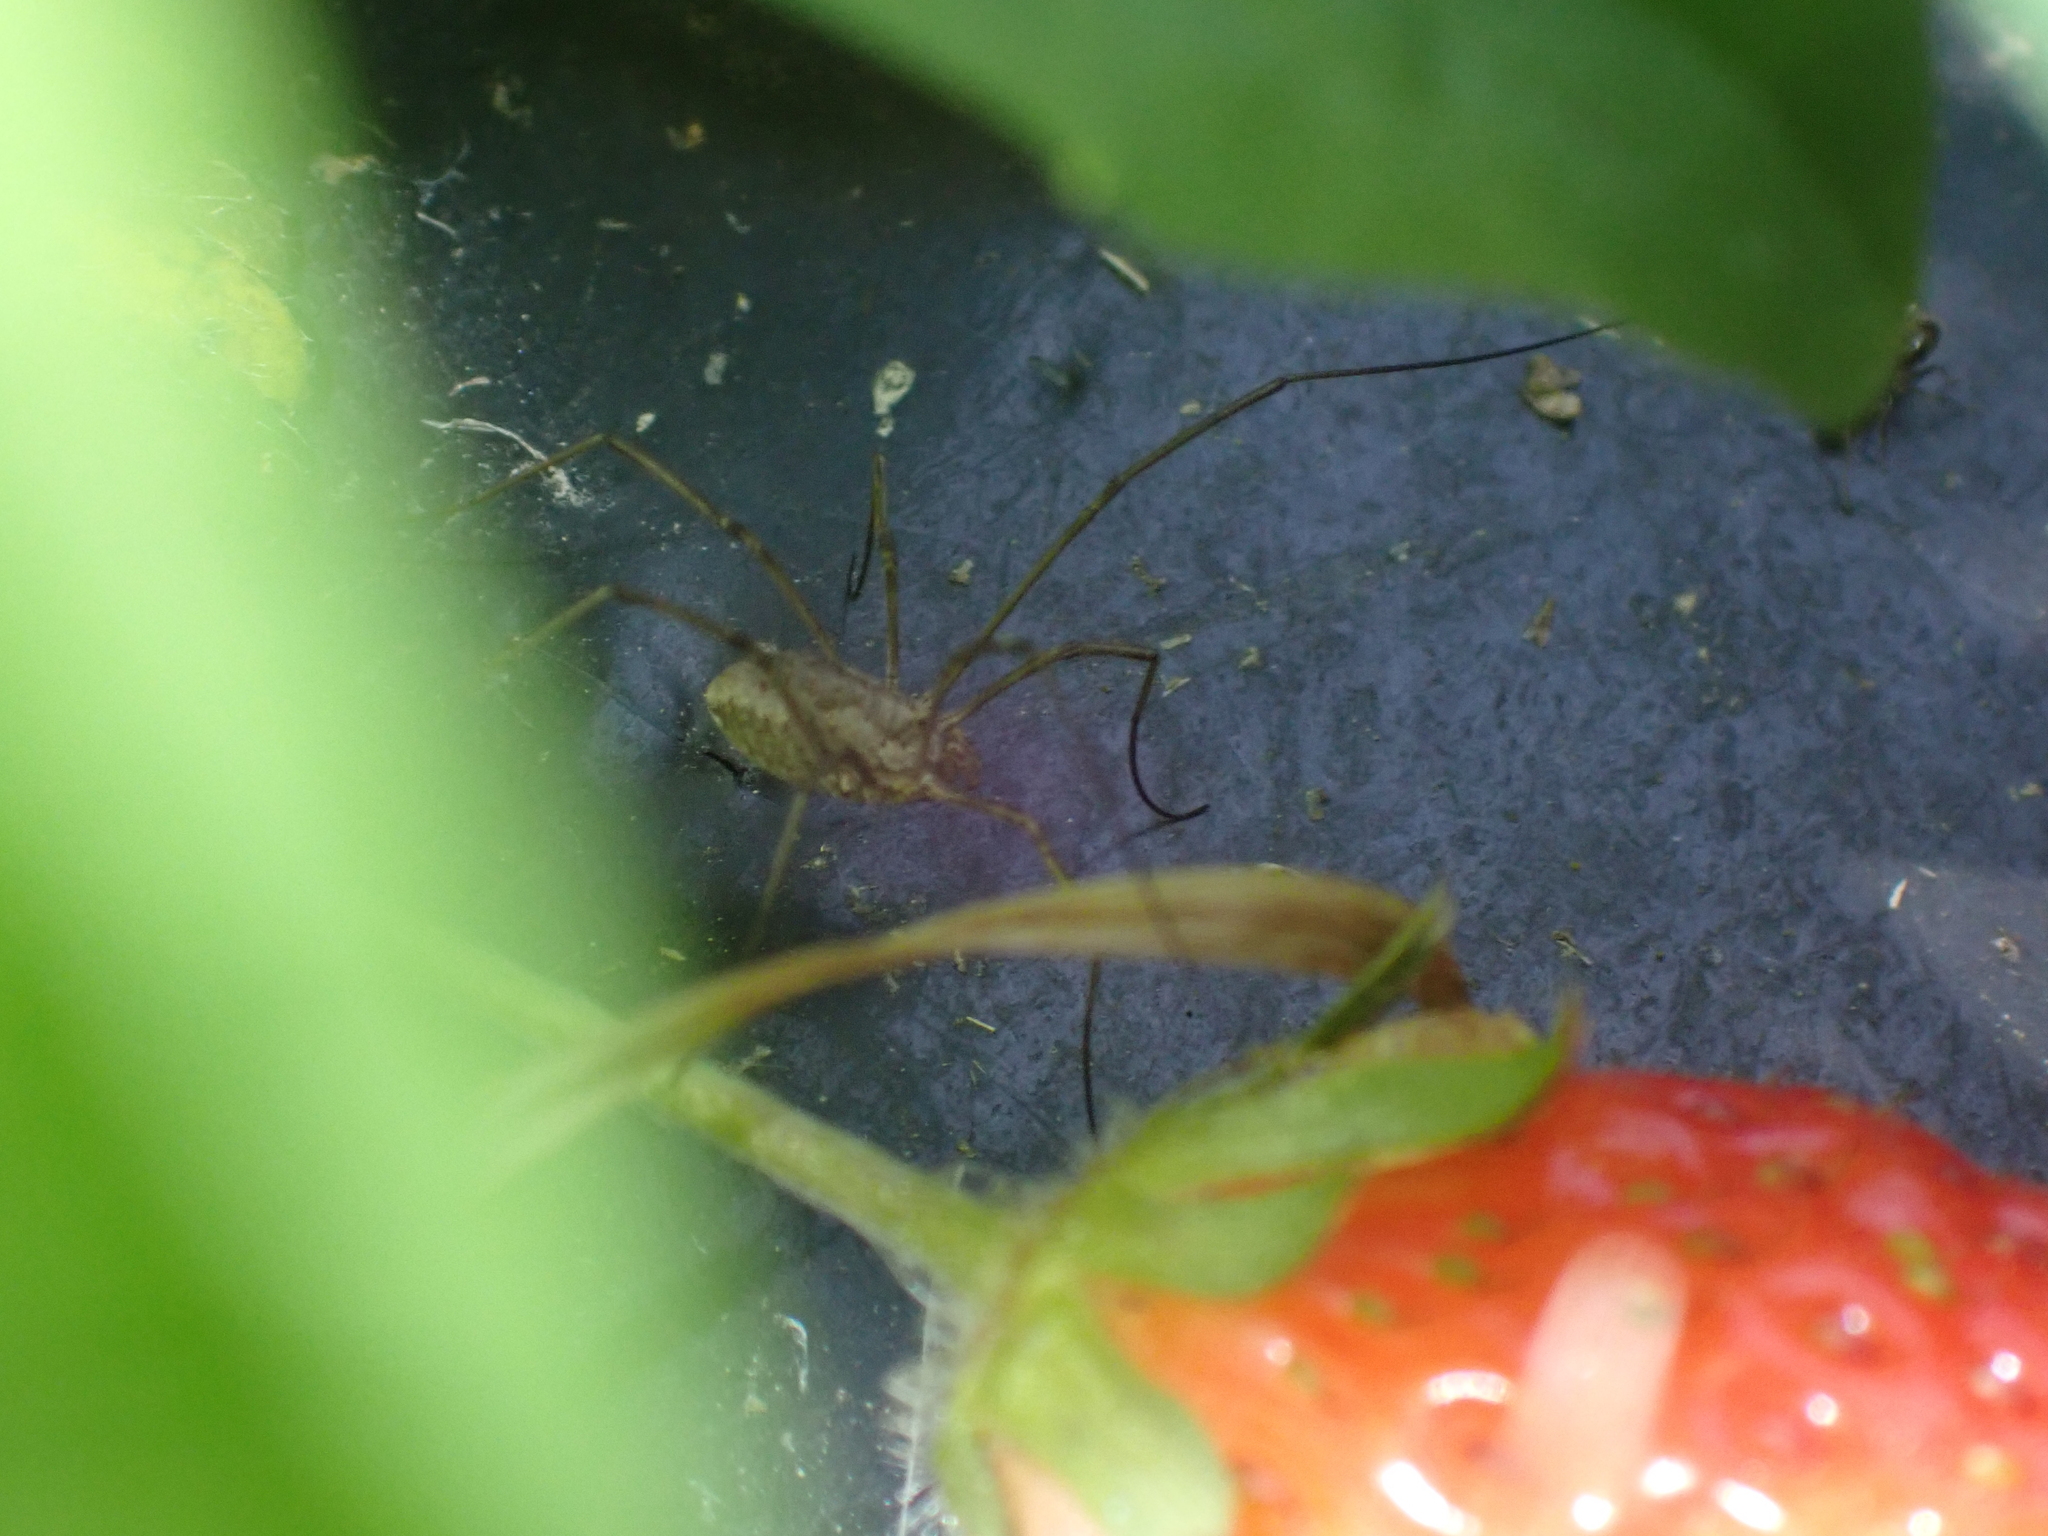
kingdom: Animalia
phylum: Arthropoda
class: Arachnida
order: Opiliones
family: Phalangiidae
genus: Phalangium
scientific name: Phalangium opilio
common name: Daddy longleg
